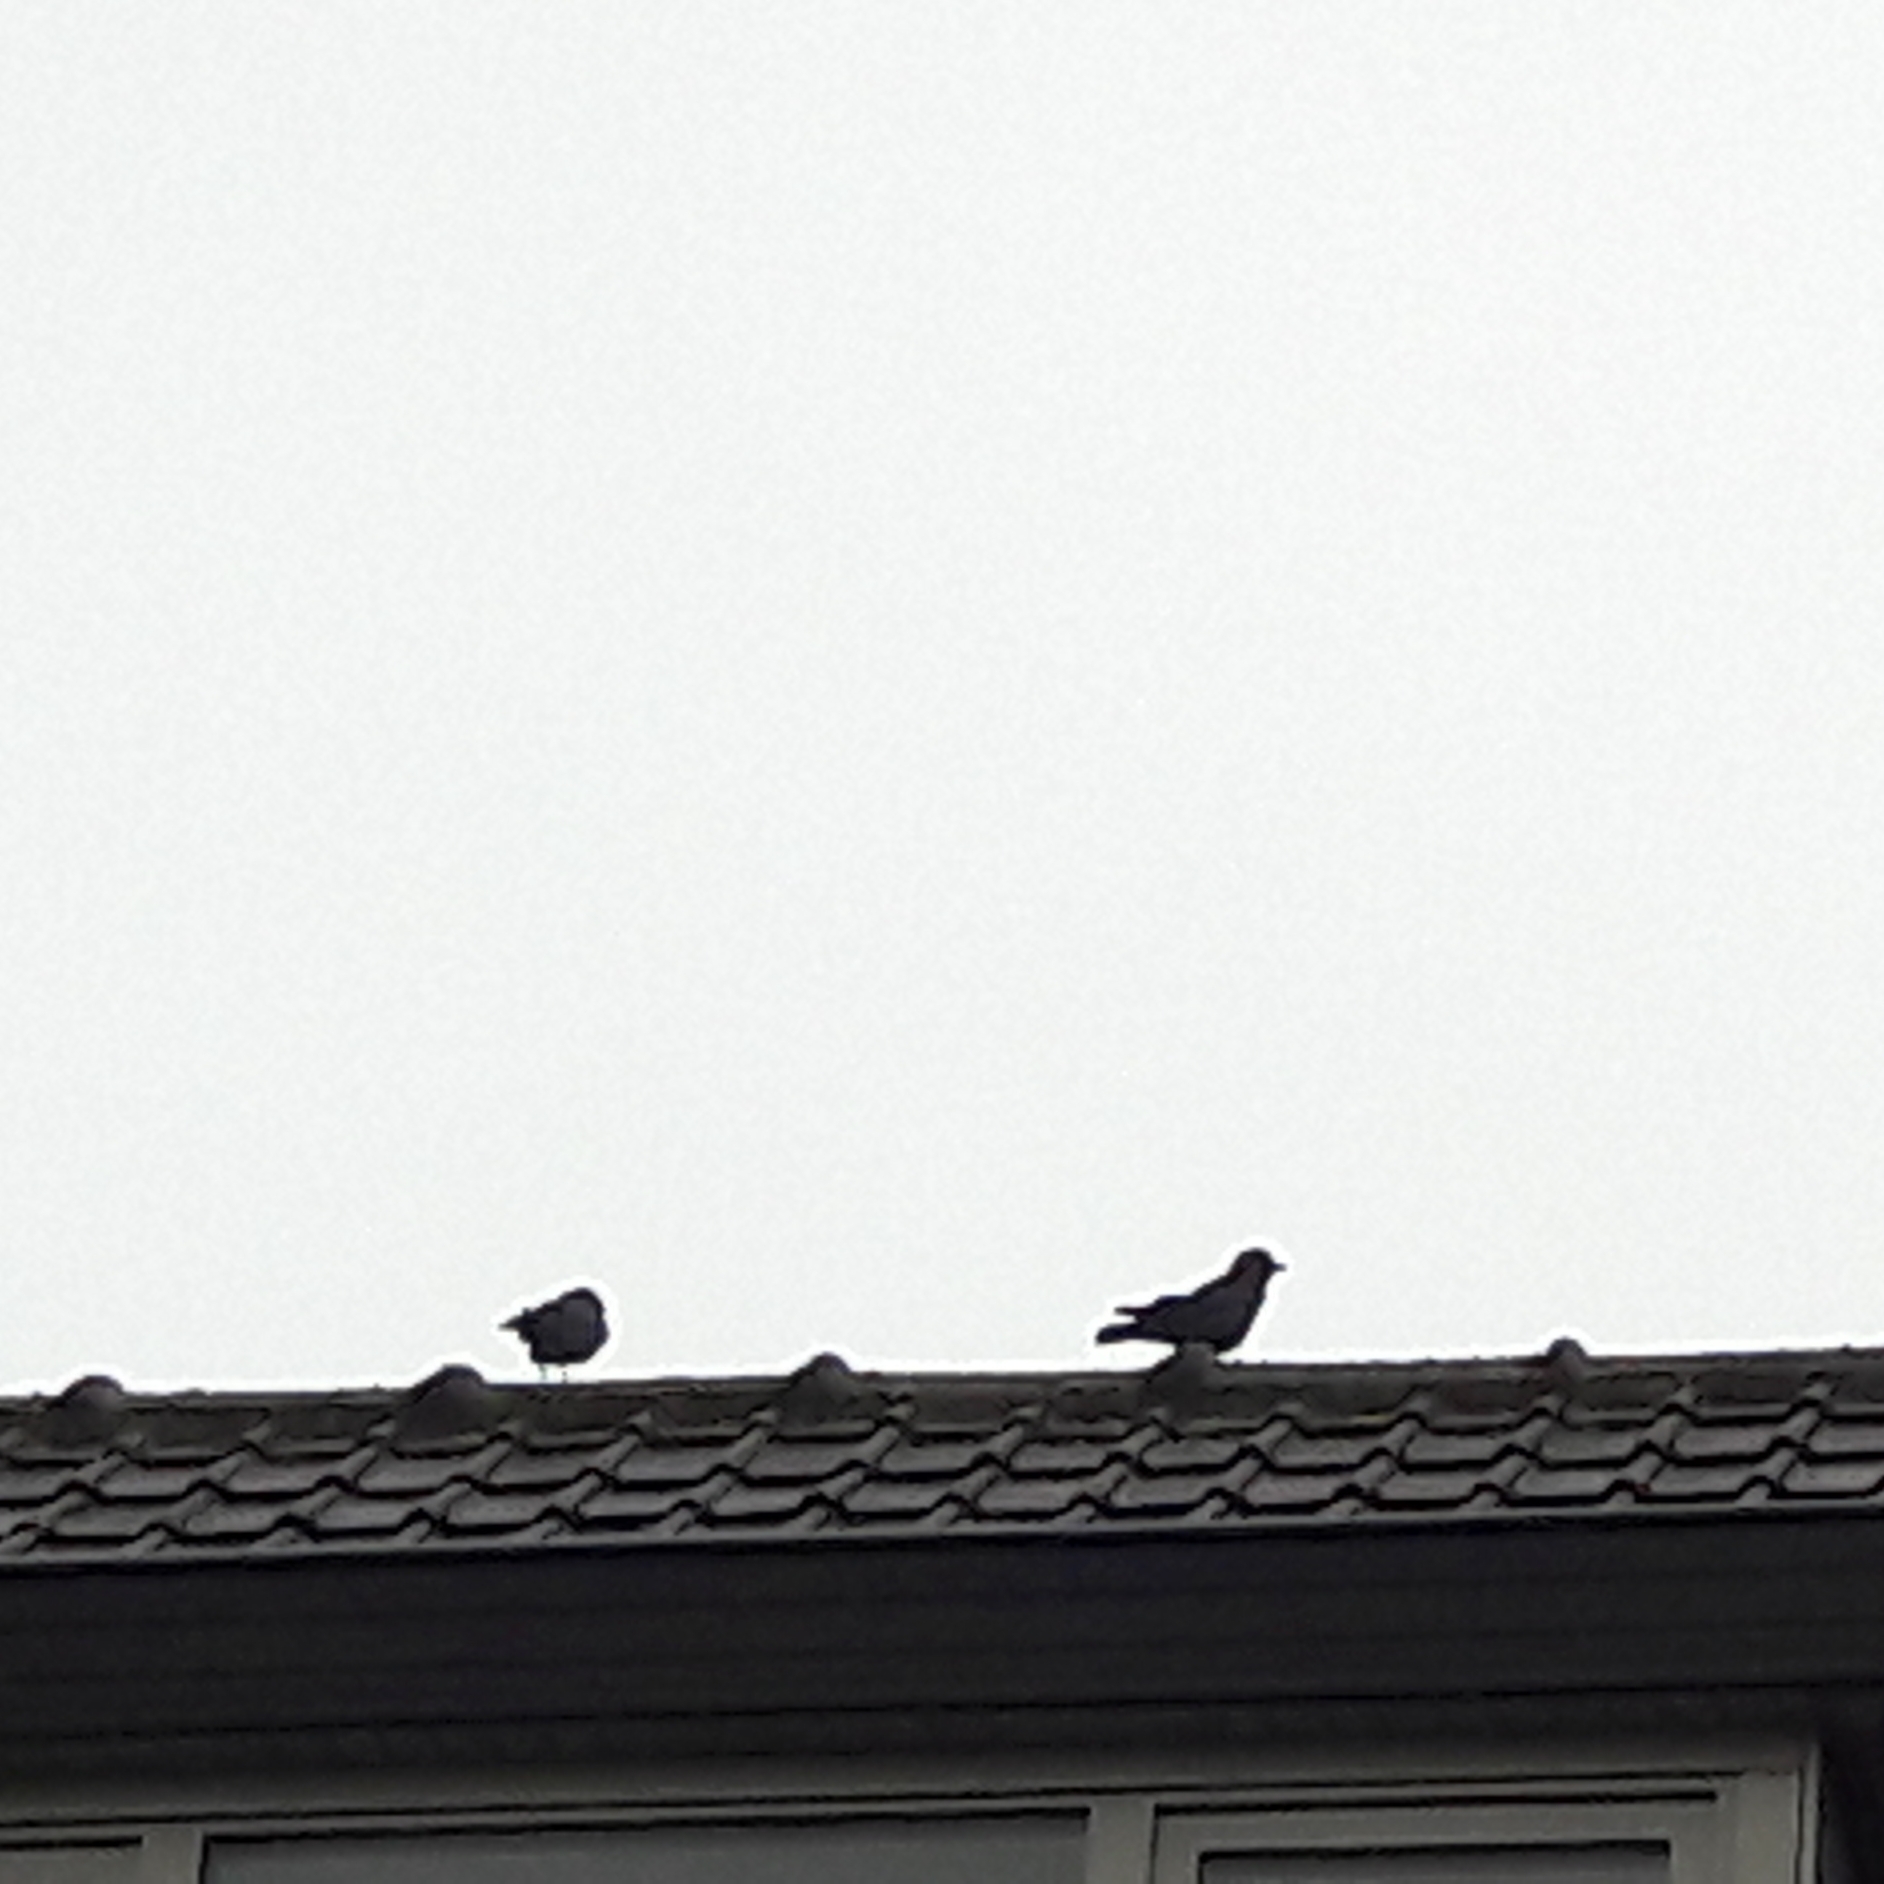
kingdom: Animalia
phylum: Chordata
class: Aves
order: Passeriformes
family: Corvidae
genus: Coloeus
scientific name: Coloeus monedula
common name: Western jackdaw
